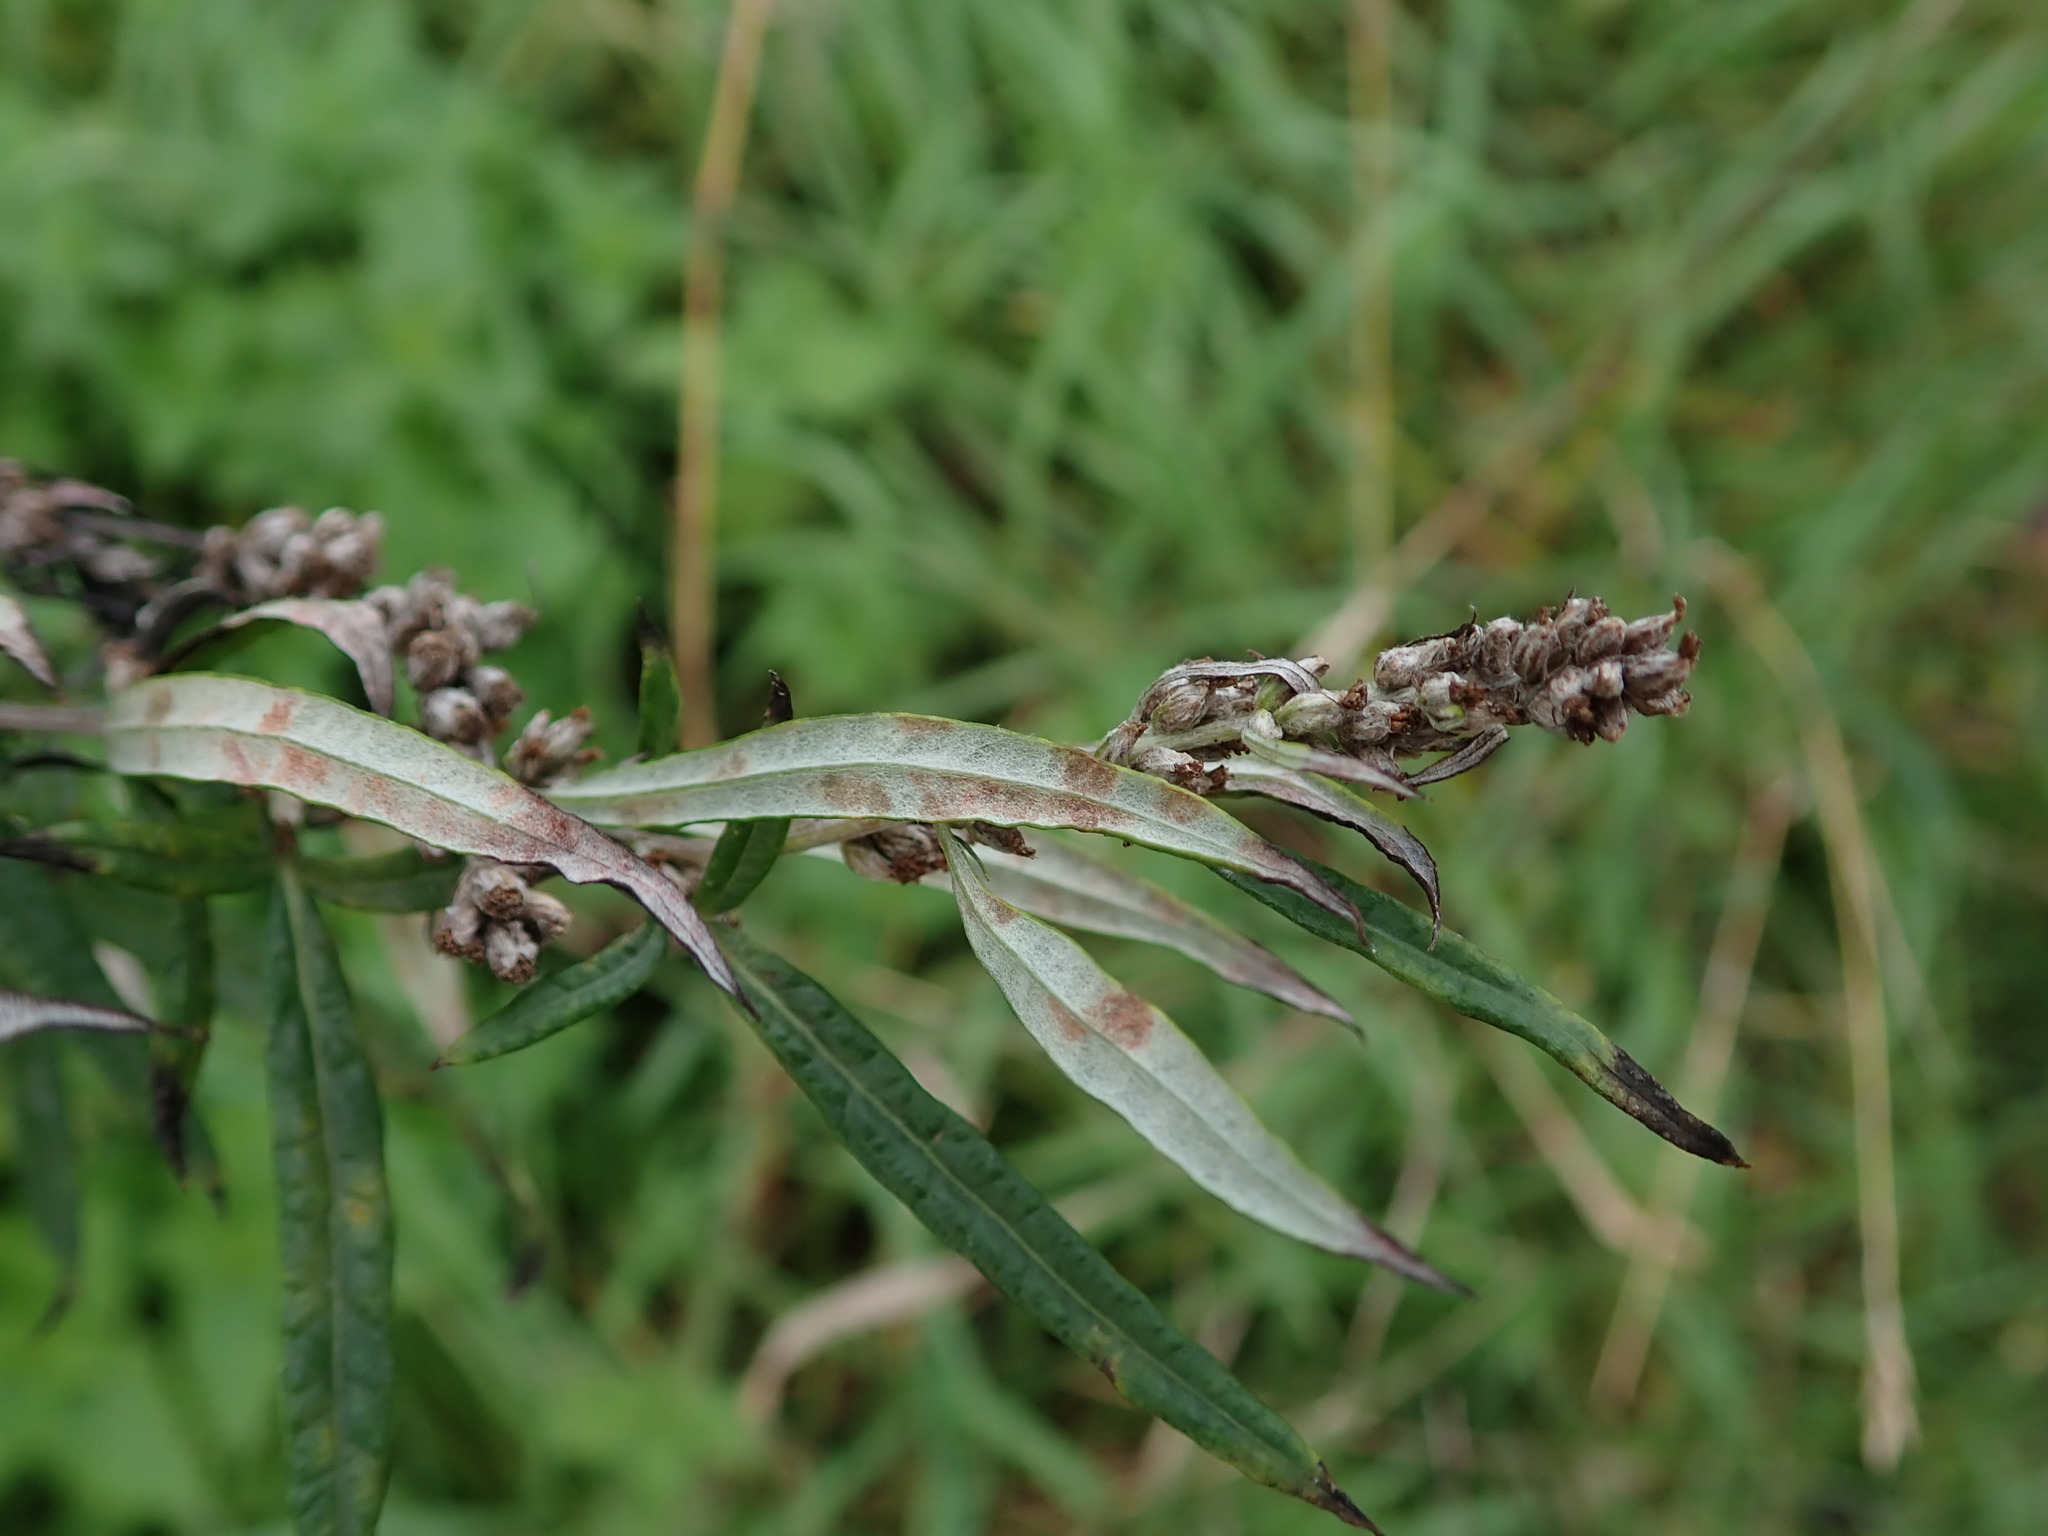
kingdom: Plantae
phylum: Tracheophyta
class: Magnoliopsida
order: Asterales
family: Asteraceae
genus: Artemisia
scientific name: Artemisia vulgaris
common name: Mugwort
